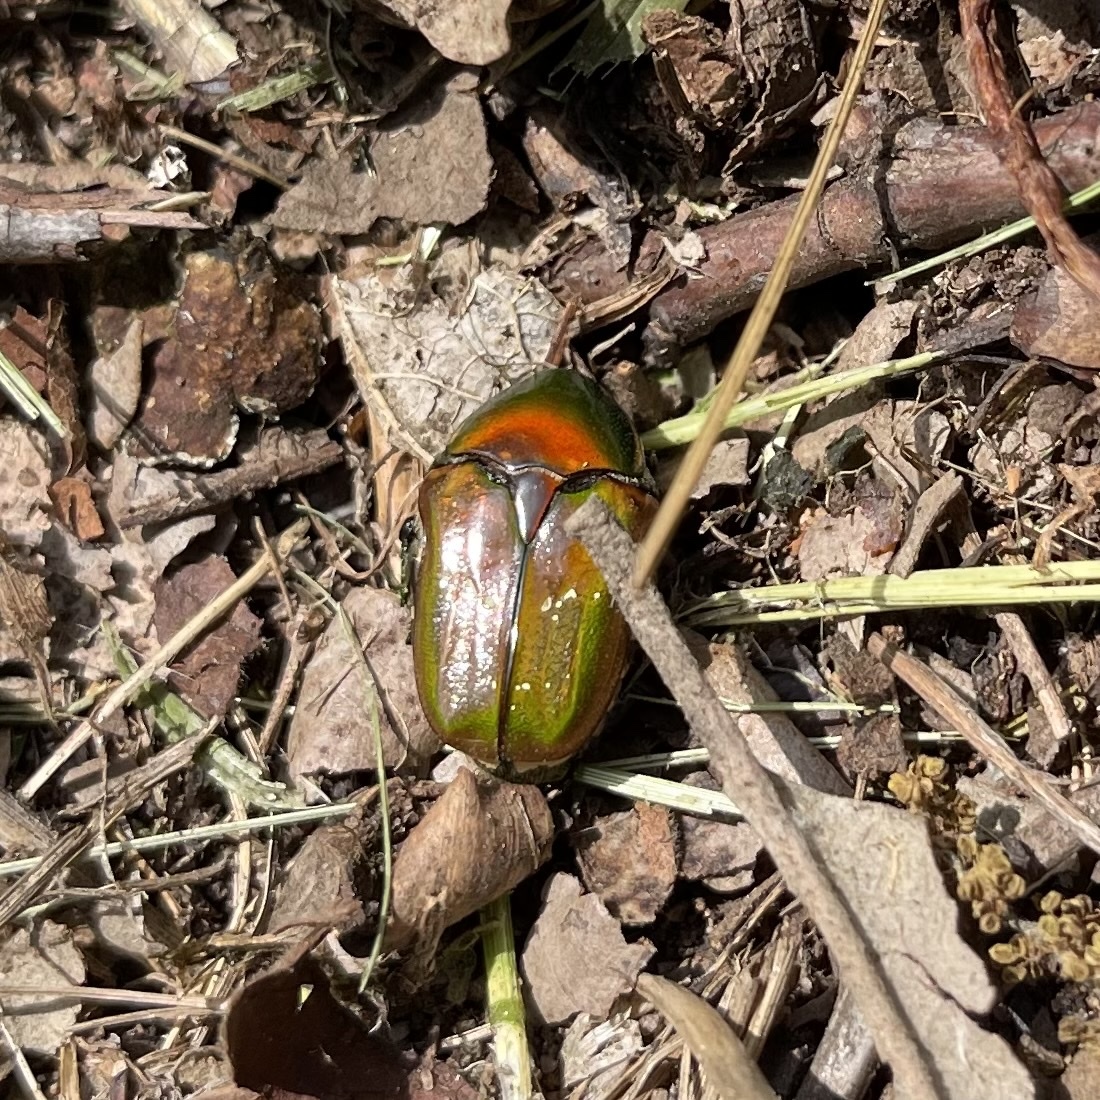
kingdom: Animalia
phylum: Arthropoda
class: Insecta
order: Coleoptera
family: Scarabaeidae
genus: Euphoria
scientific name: Euphoria fulgida
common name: Emerald euphoria
